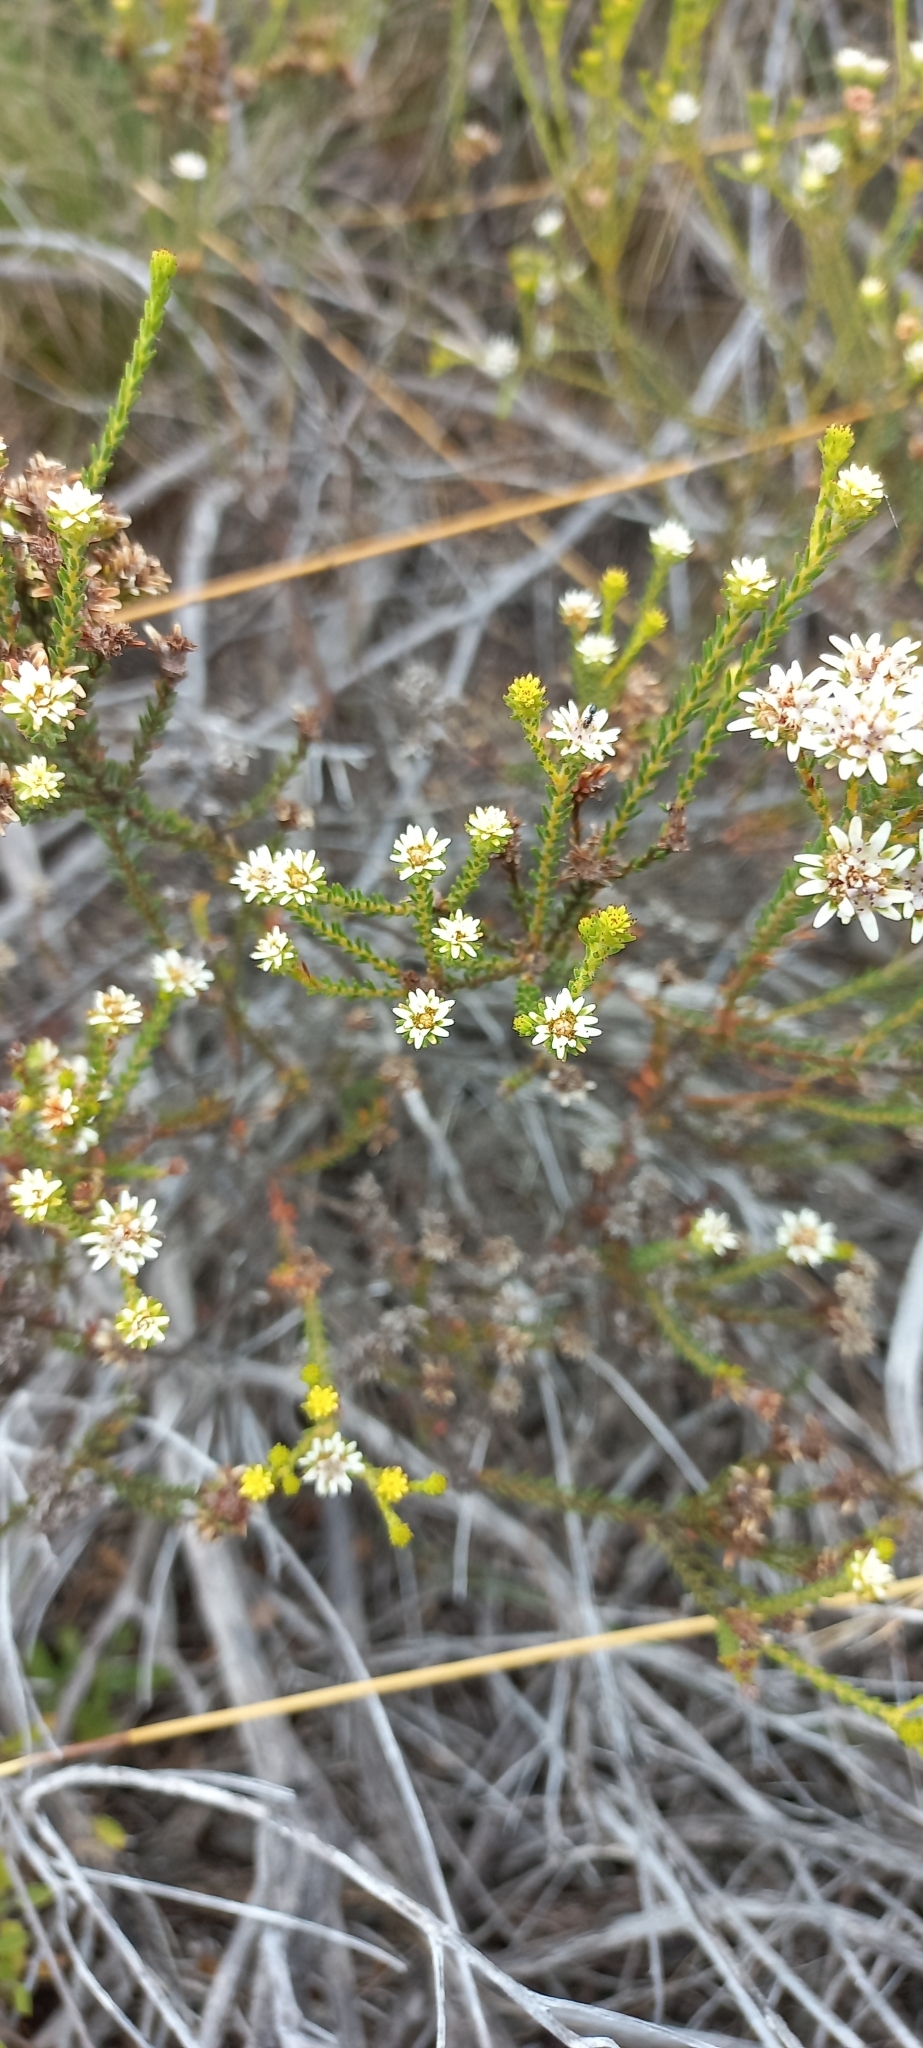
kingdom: Plantae
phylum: Tracheophyta
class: Magnoliopsida
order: Bruniales
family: Bruniaceae
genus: Staavia
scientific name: Staavia radiata
